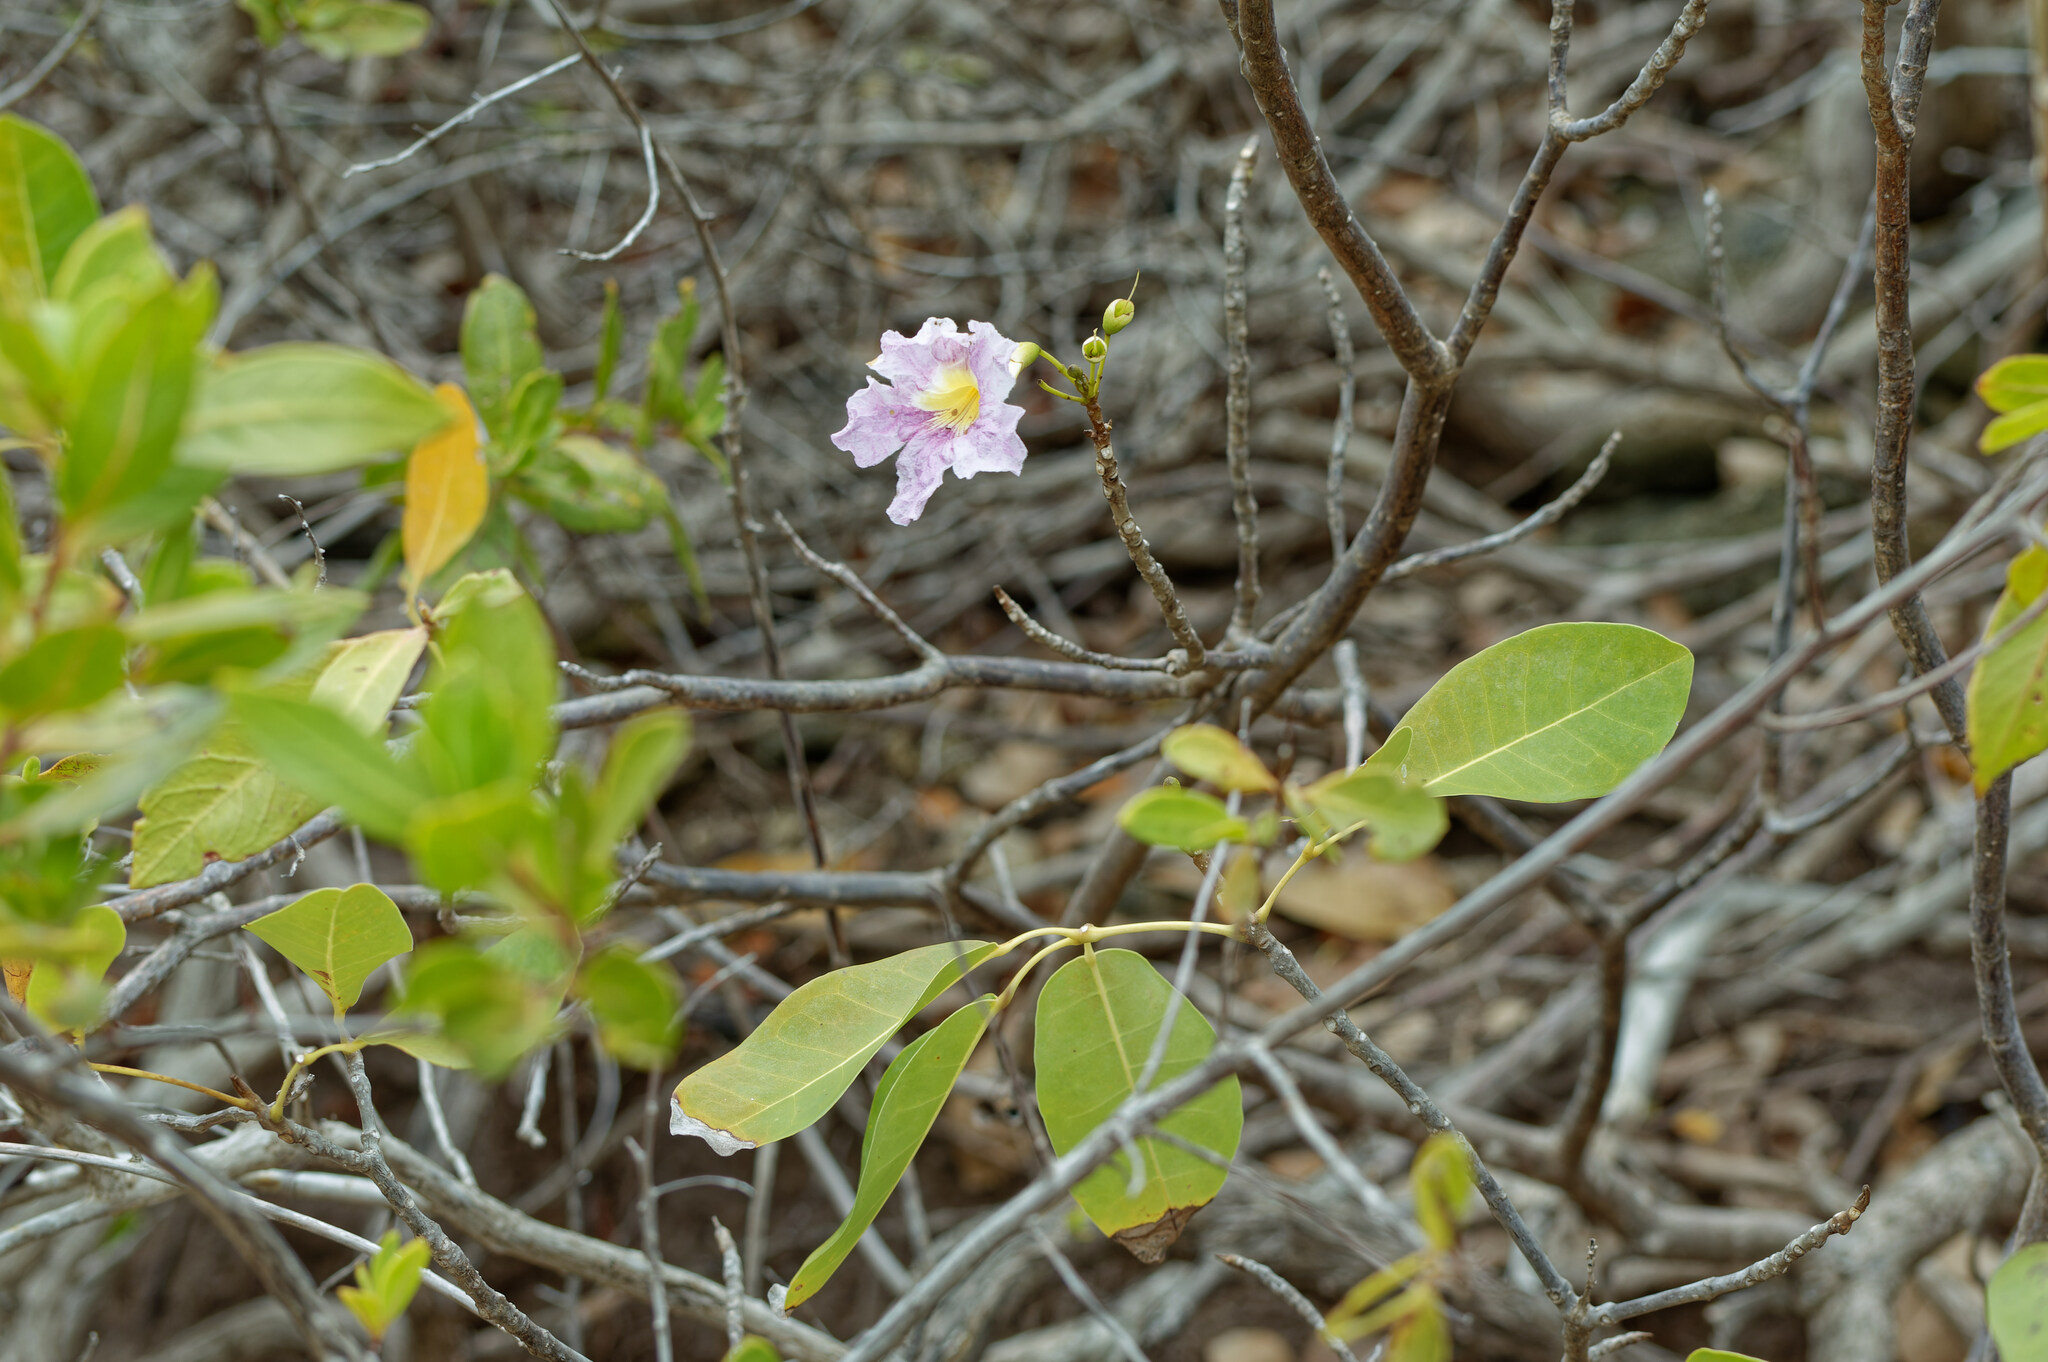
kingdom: Plantae
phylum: Tracheophyta
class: Magnoliopsida
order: Lamiales
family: Bignoniaceae
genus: Tabebuia
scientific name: Tabebuia heterophylla
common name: White cedar
